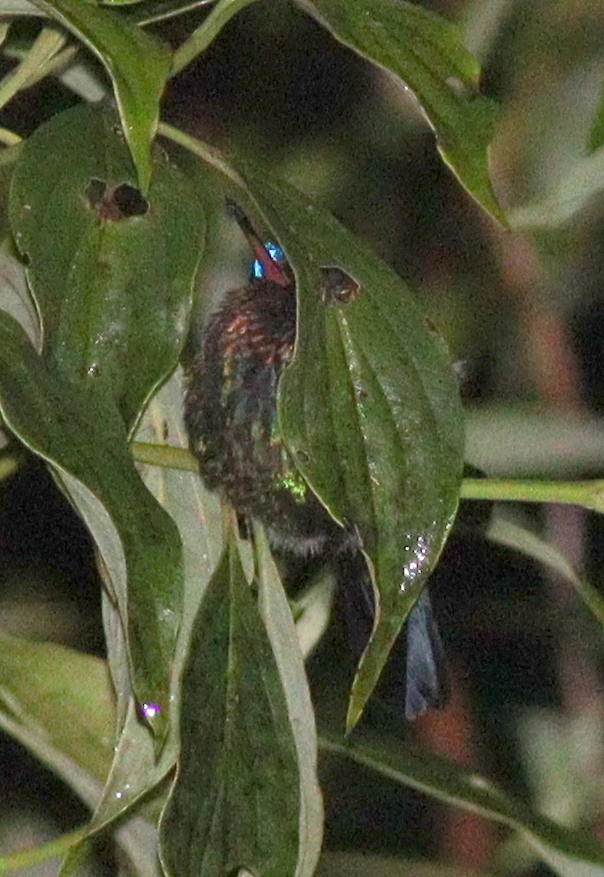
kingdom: Animalia
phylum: Chordata
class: Aves
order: Apodiformes
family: Trochilidae
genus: Panterpe
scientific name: Panterpe insignis
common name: Fiery-throated hummingbird
